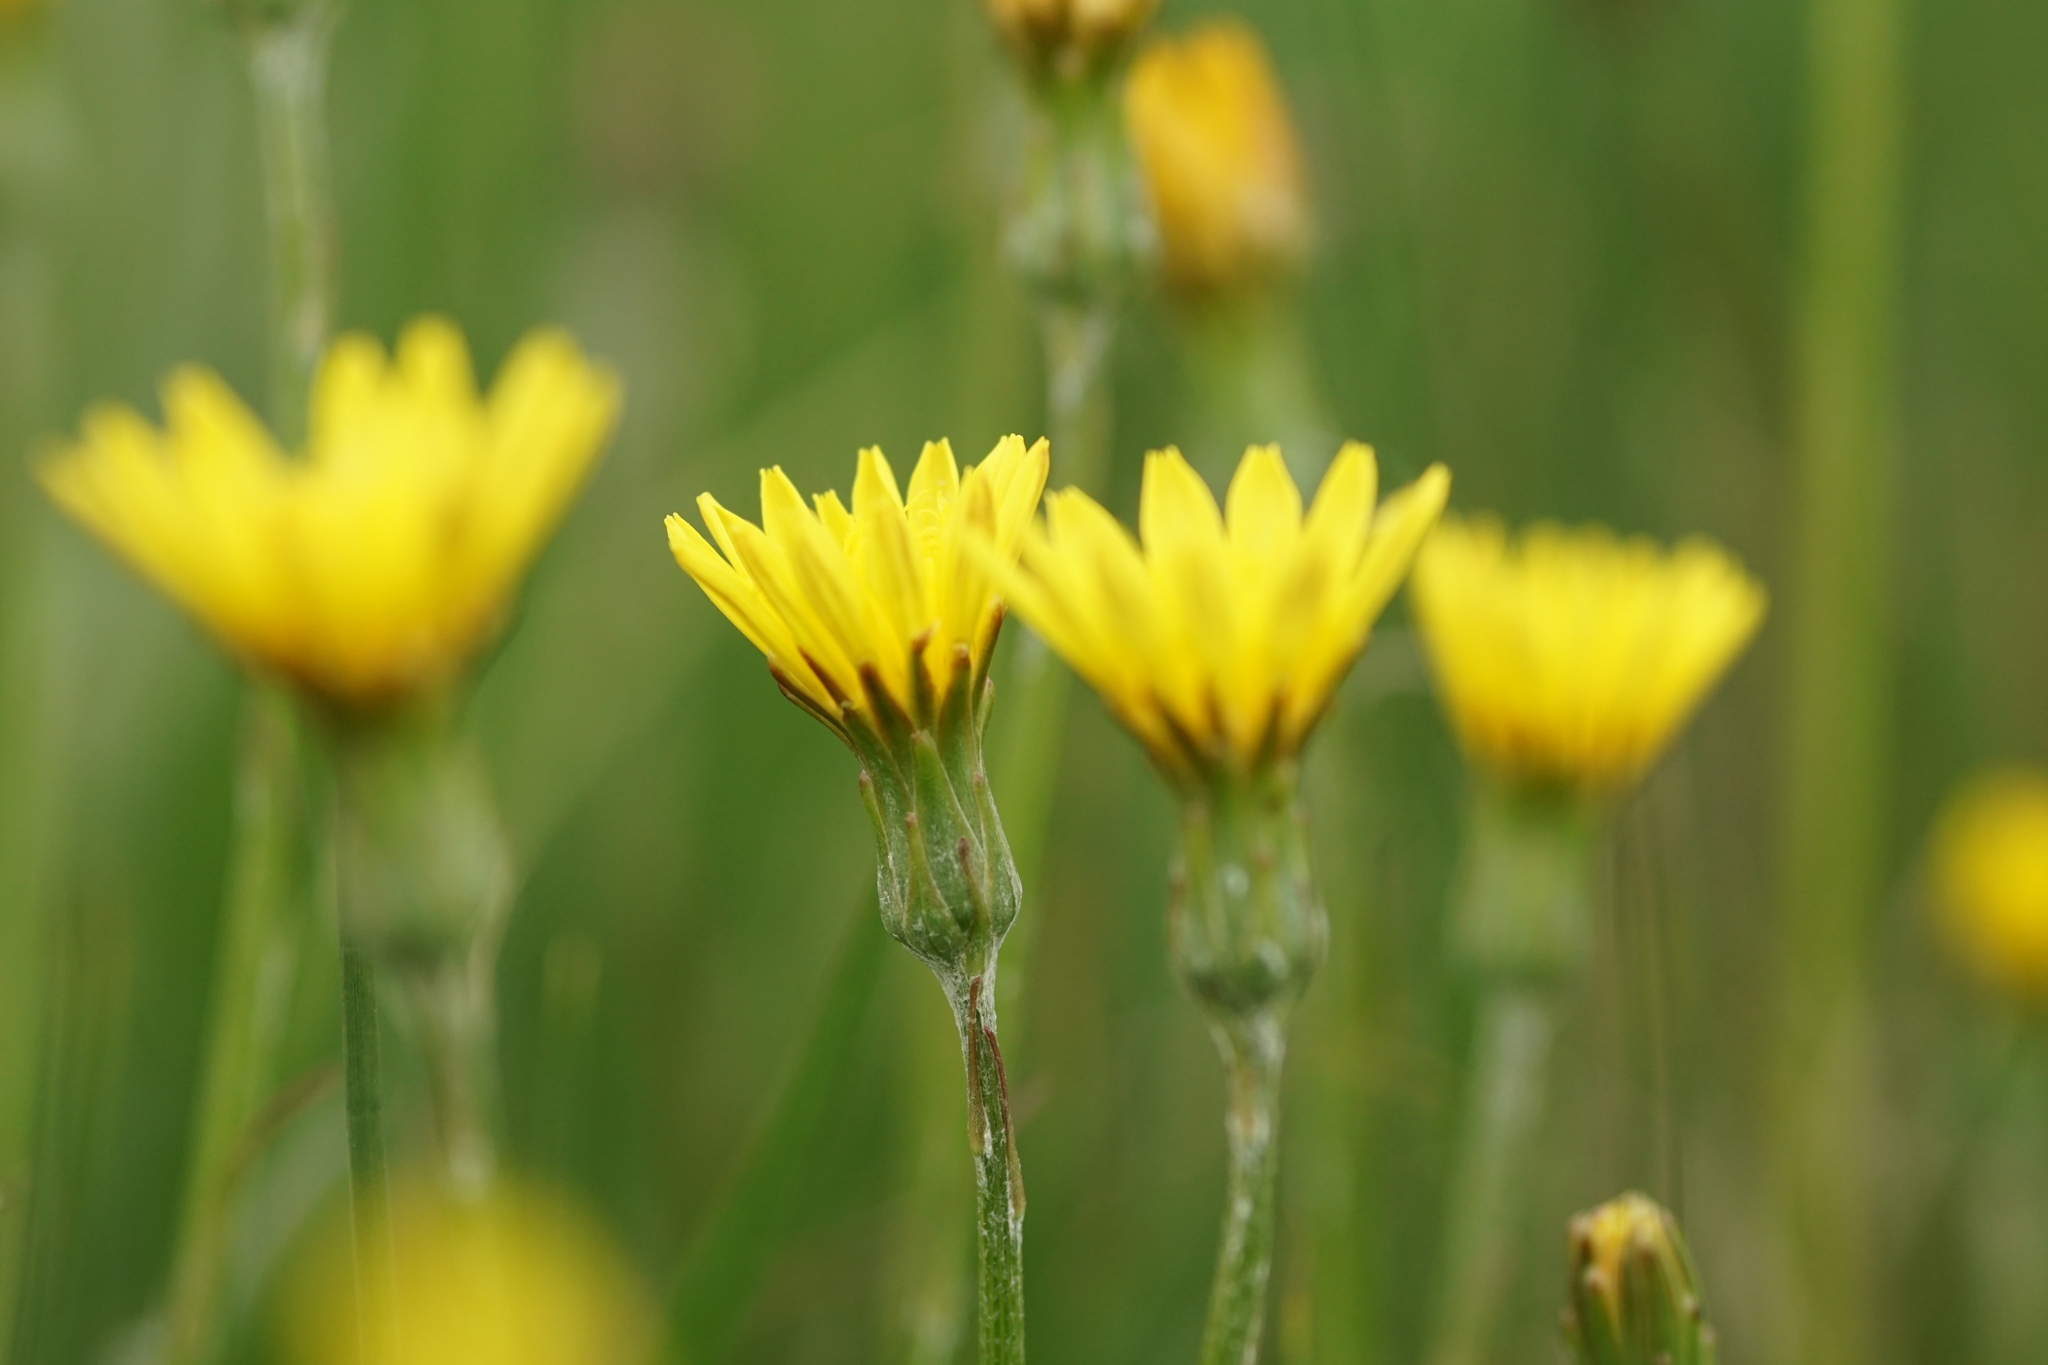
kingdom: Plantae
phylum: Tracheophyta
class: Magnoliopsida
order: Asterales
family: Asteraceae
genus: Scorzonera
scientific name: Scorzonera humilis
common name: Viper's-grass
